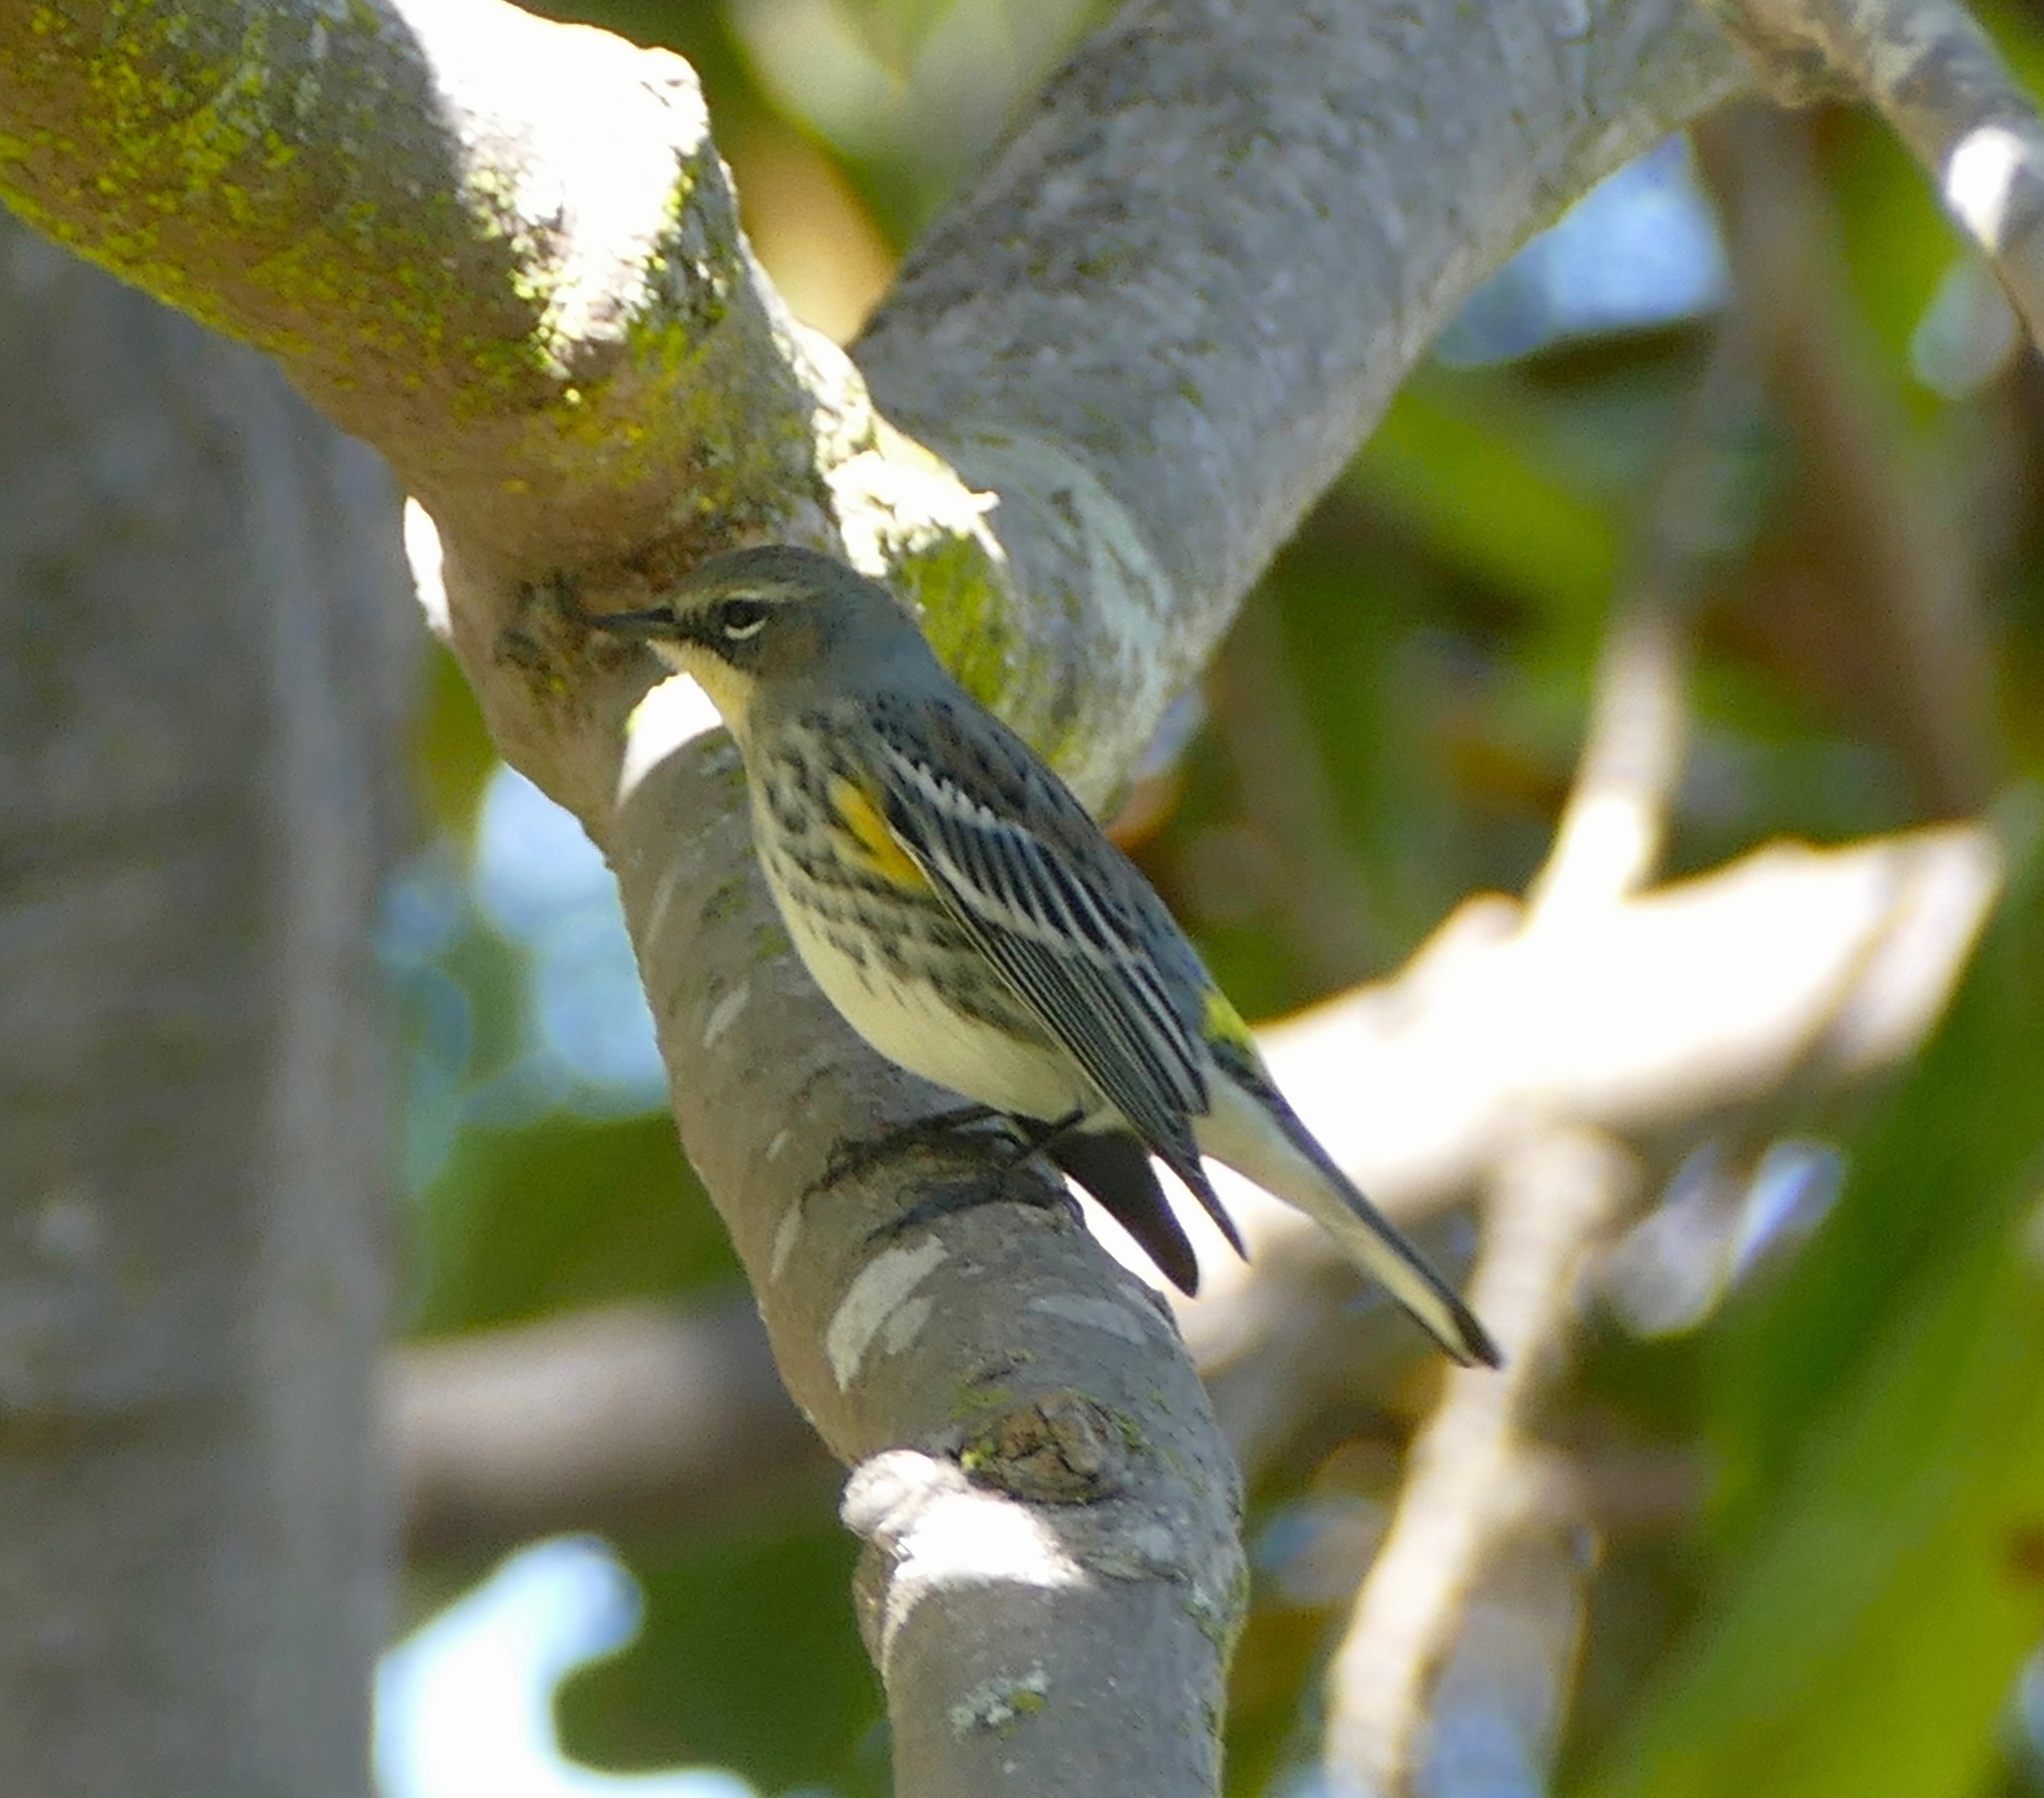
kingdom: Animalia
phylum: Chordata
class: Aves
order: Passeriformes
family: Parulidae
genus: Setophaga
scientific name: Setophaga coronata
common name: Myrtle warbler
